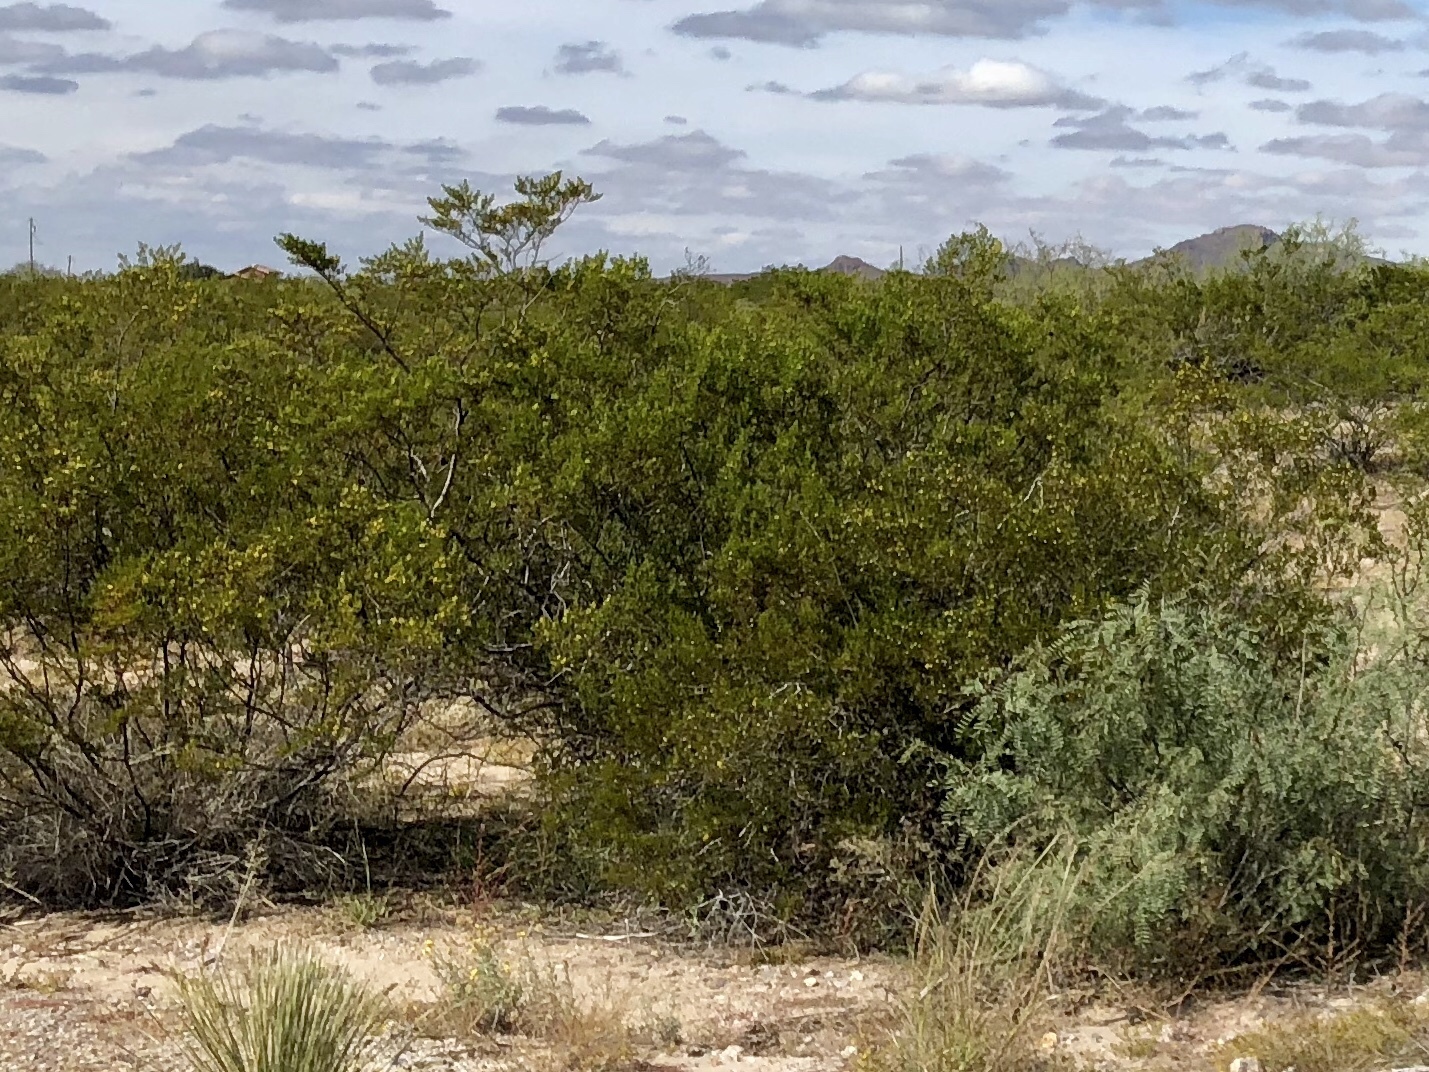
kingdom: Plantae
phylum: Tracheophyta
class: Magnoliopsida
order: Zygophyllales
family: Zygophyllaceae
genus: Larrea
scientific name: Larrea tridentata
